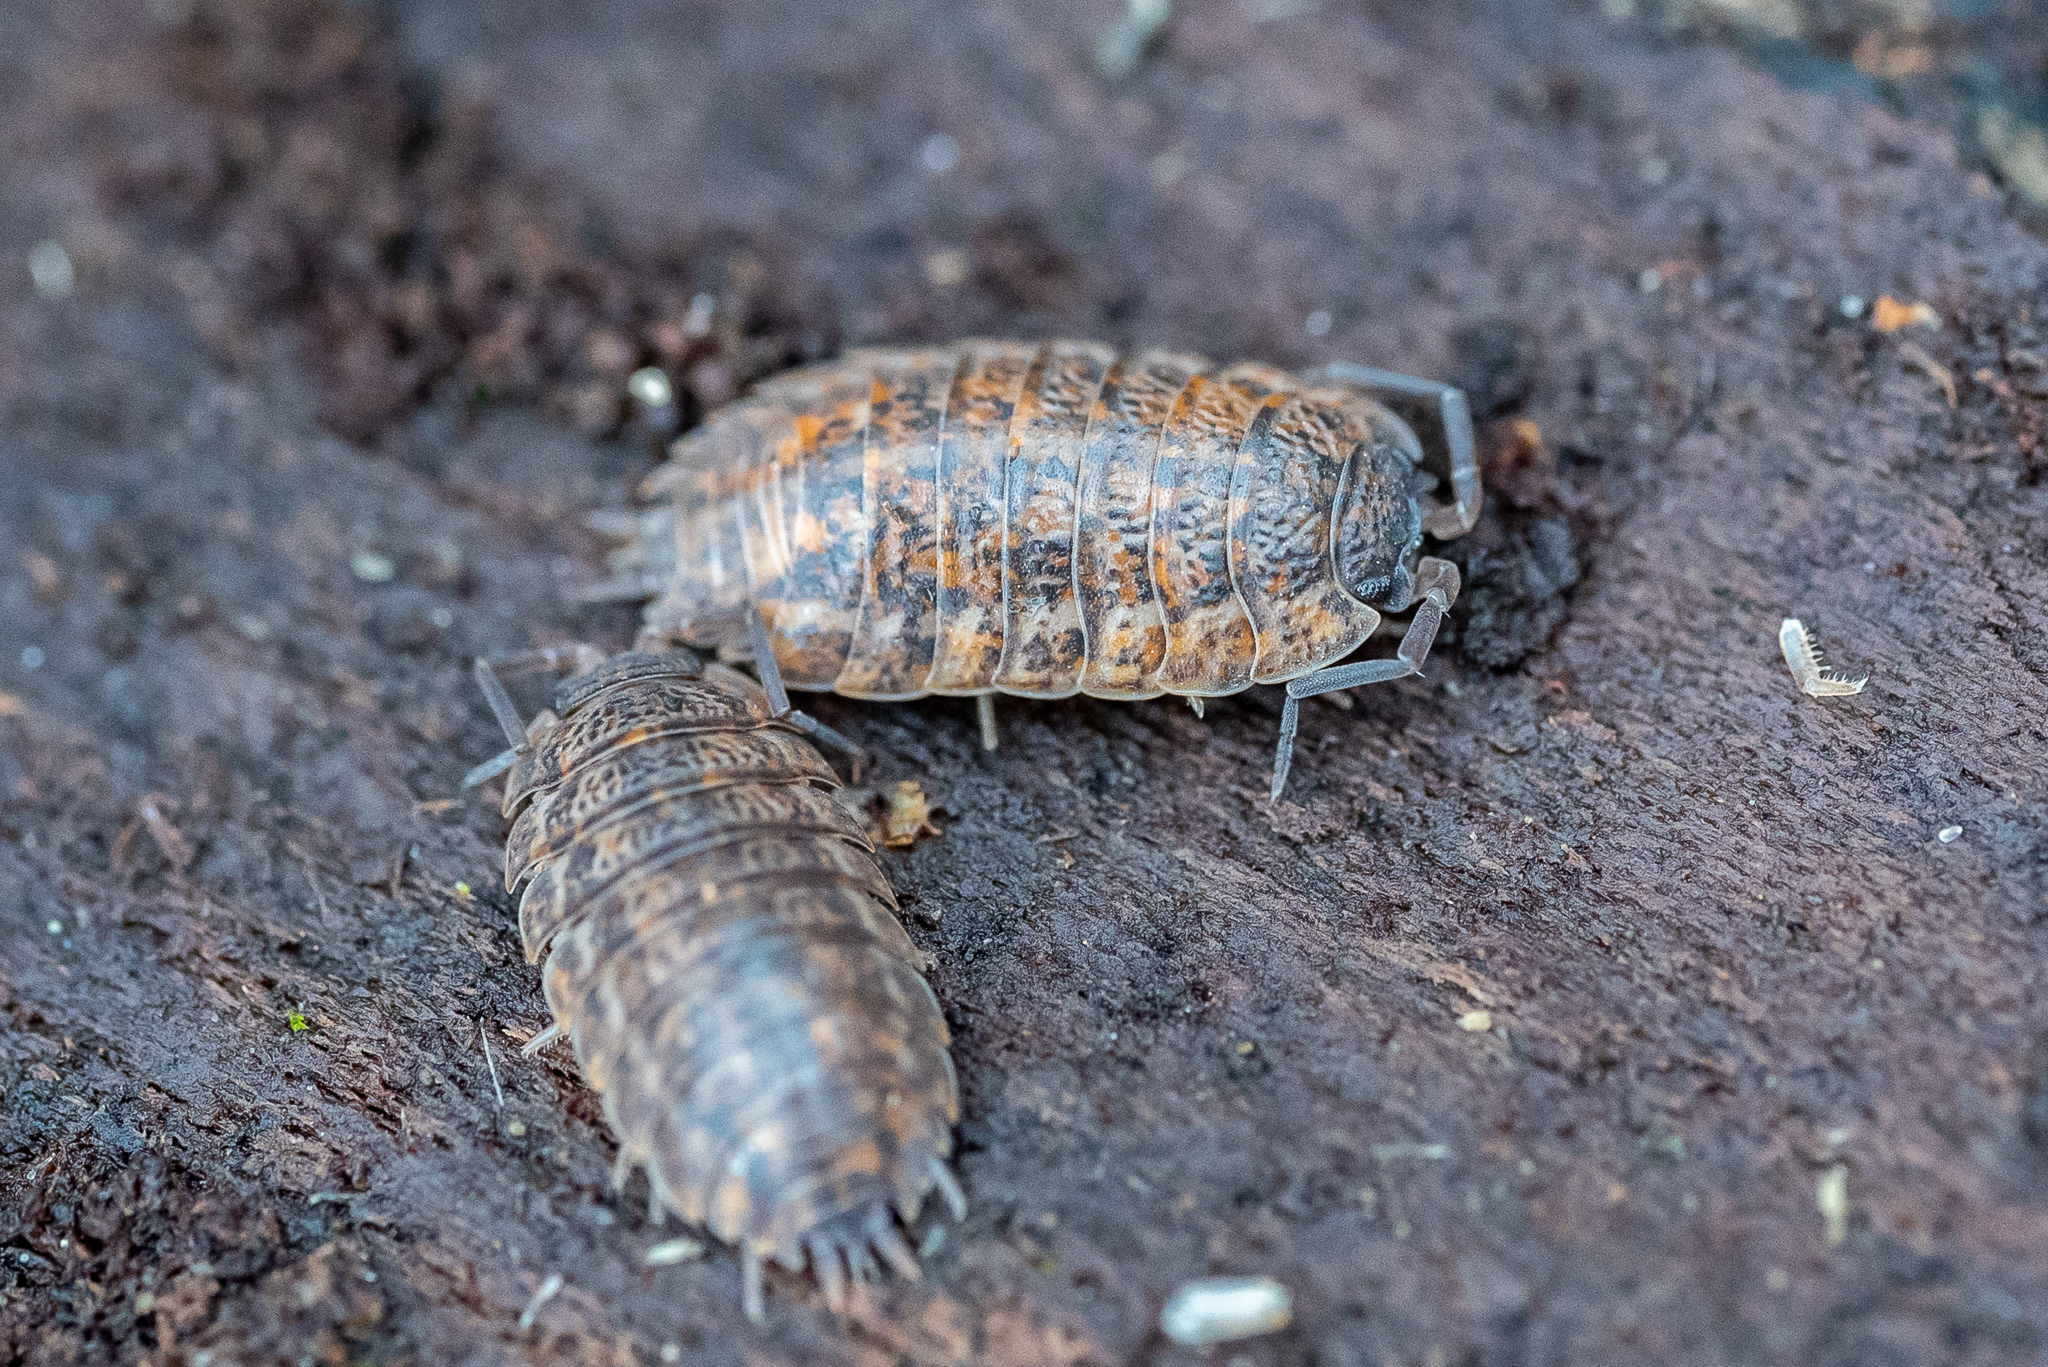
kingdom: Animalia
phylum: Arthropoda
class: Malacostraca
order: Isopoda
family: Trachelipodidae
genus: Trachelipus
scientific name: Trachelipus rathkii
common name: Isopod
